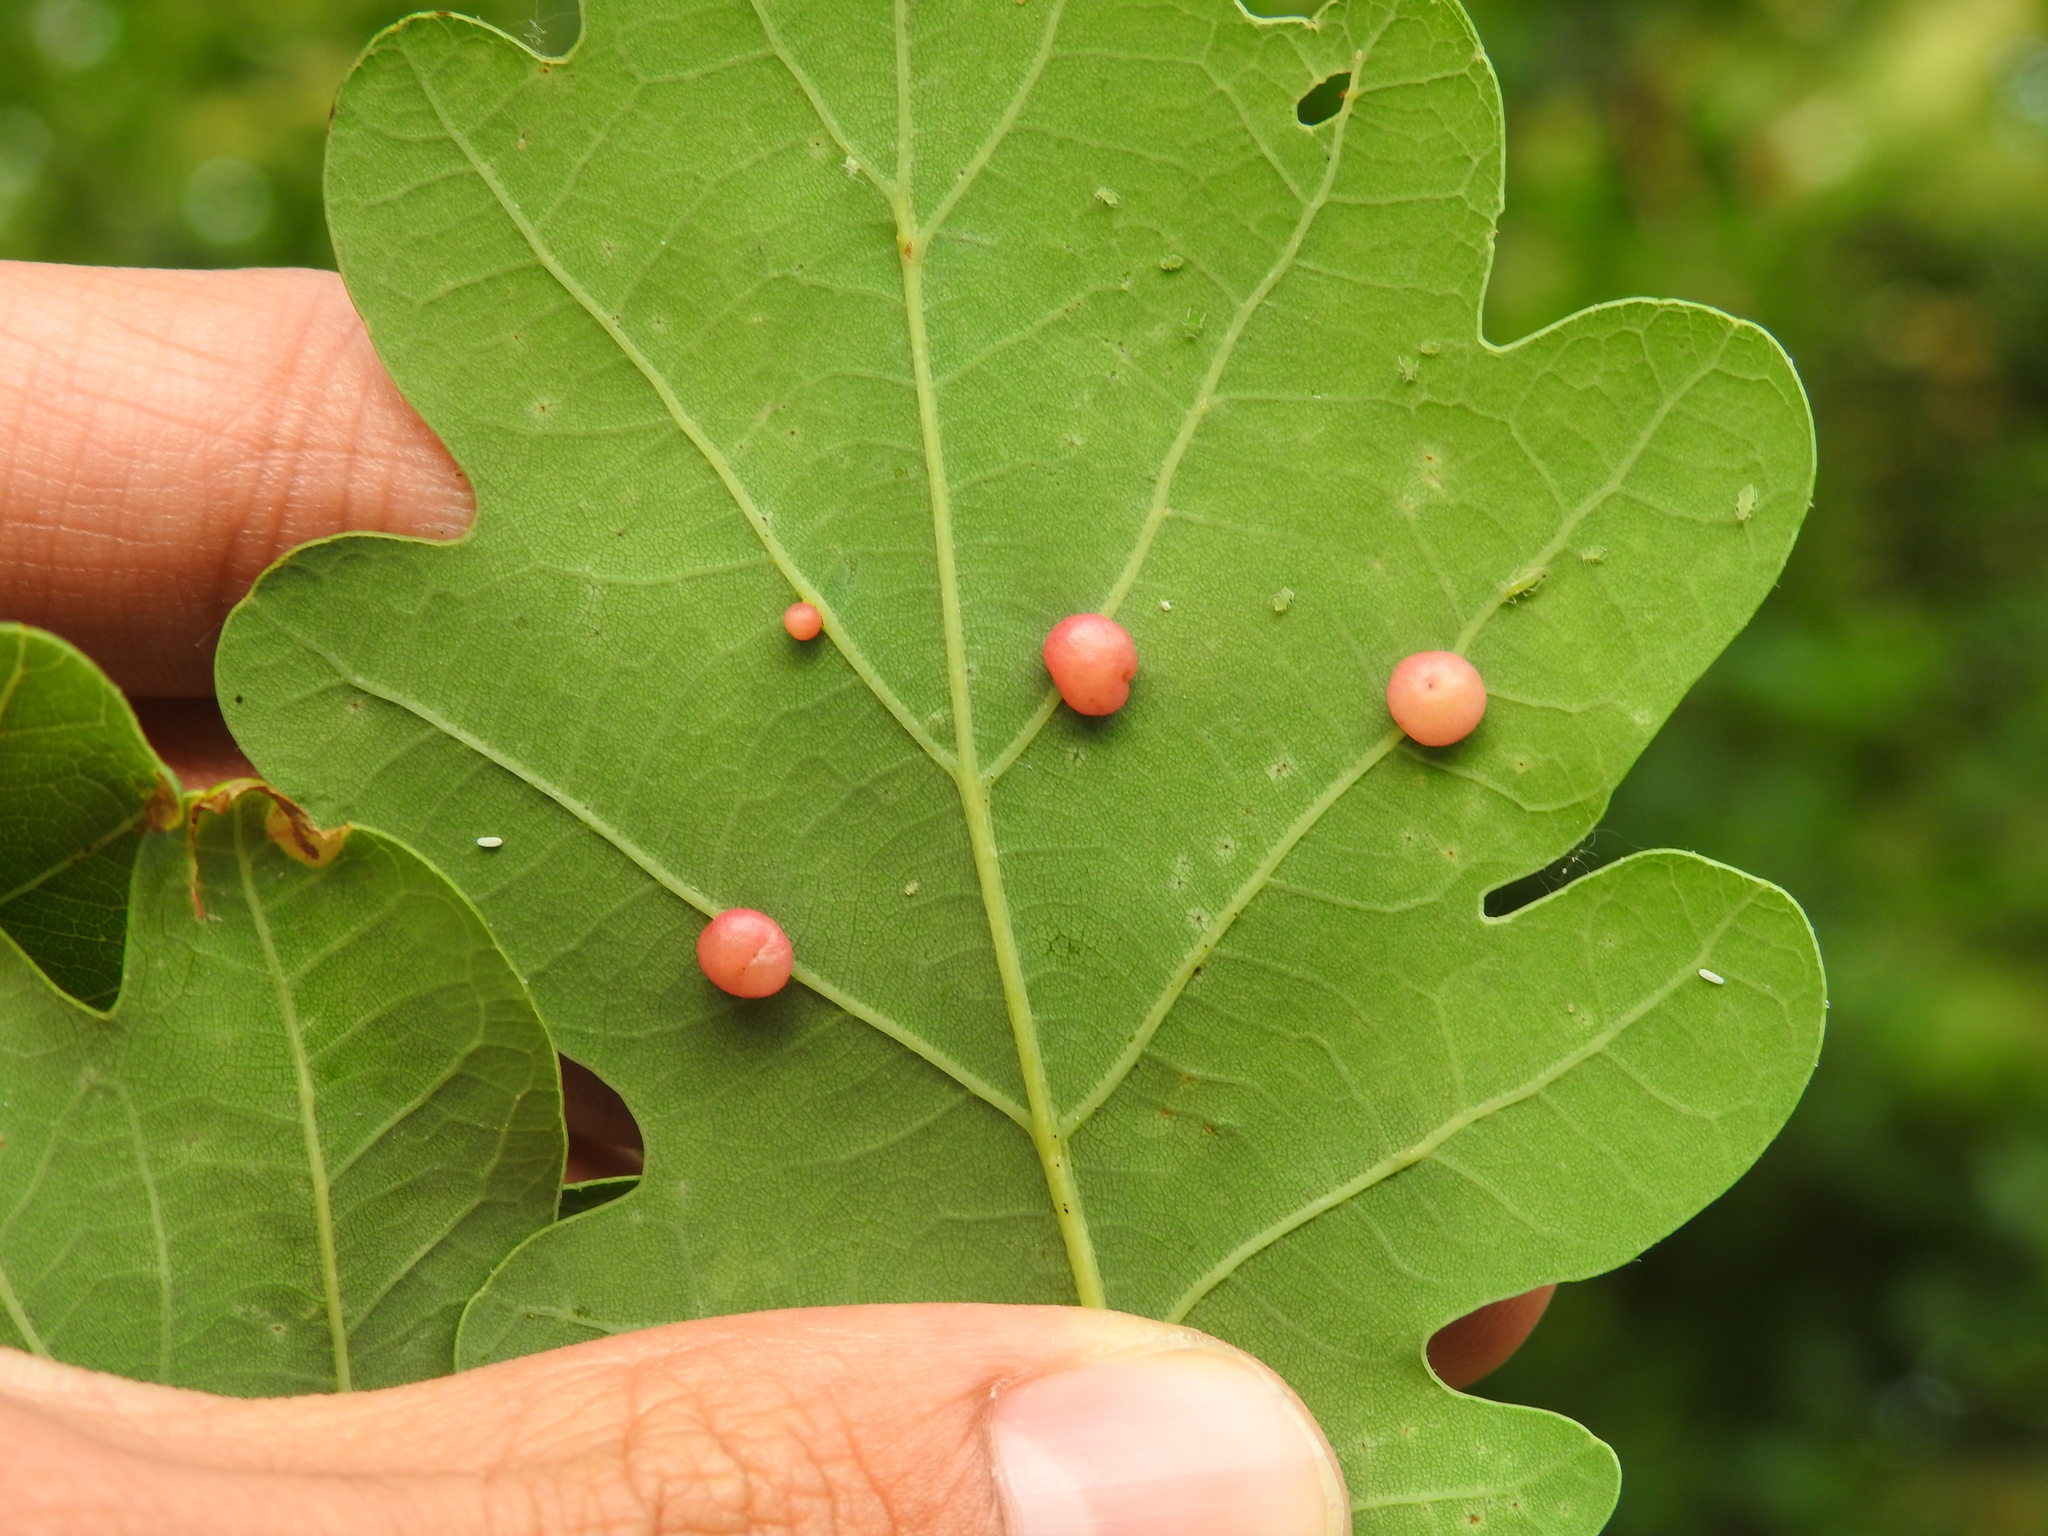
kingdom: Animalia
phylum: Arthropoda
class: Insecta
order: Hymenoptera
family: Cynipidae
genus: Cynips
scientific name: Cynips divisa
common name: Red currant gall
